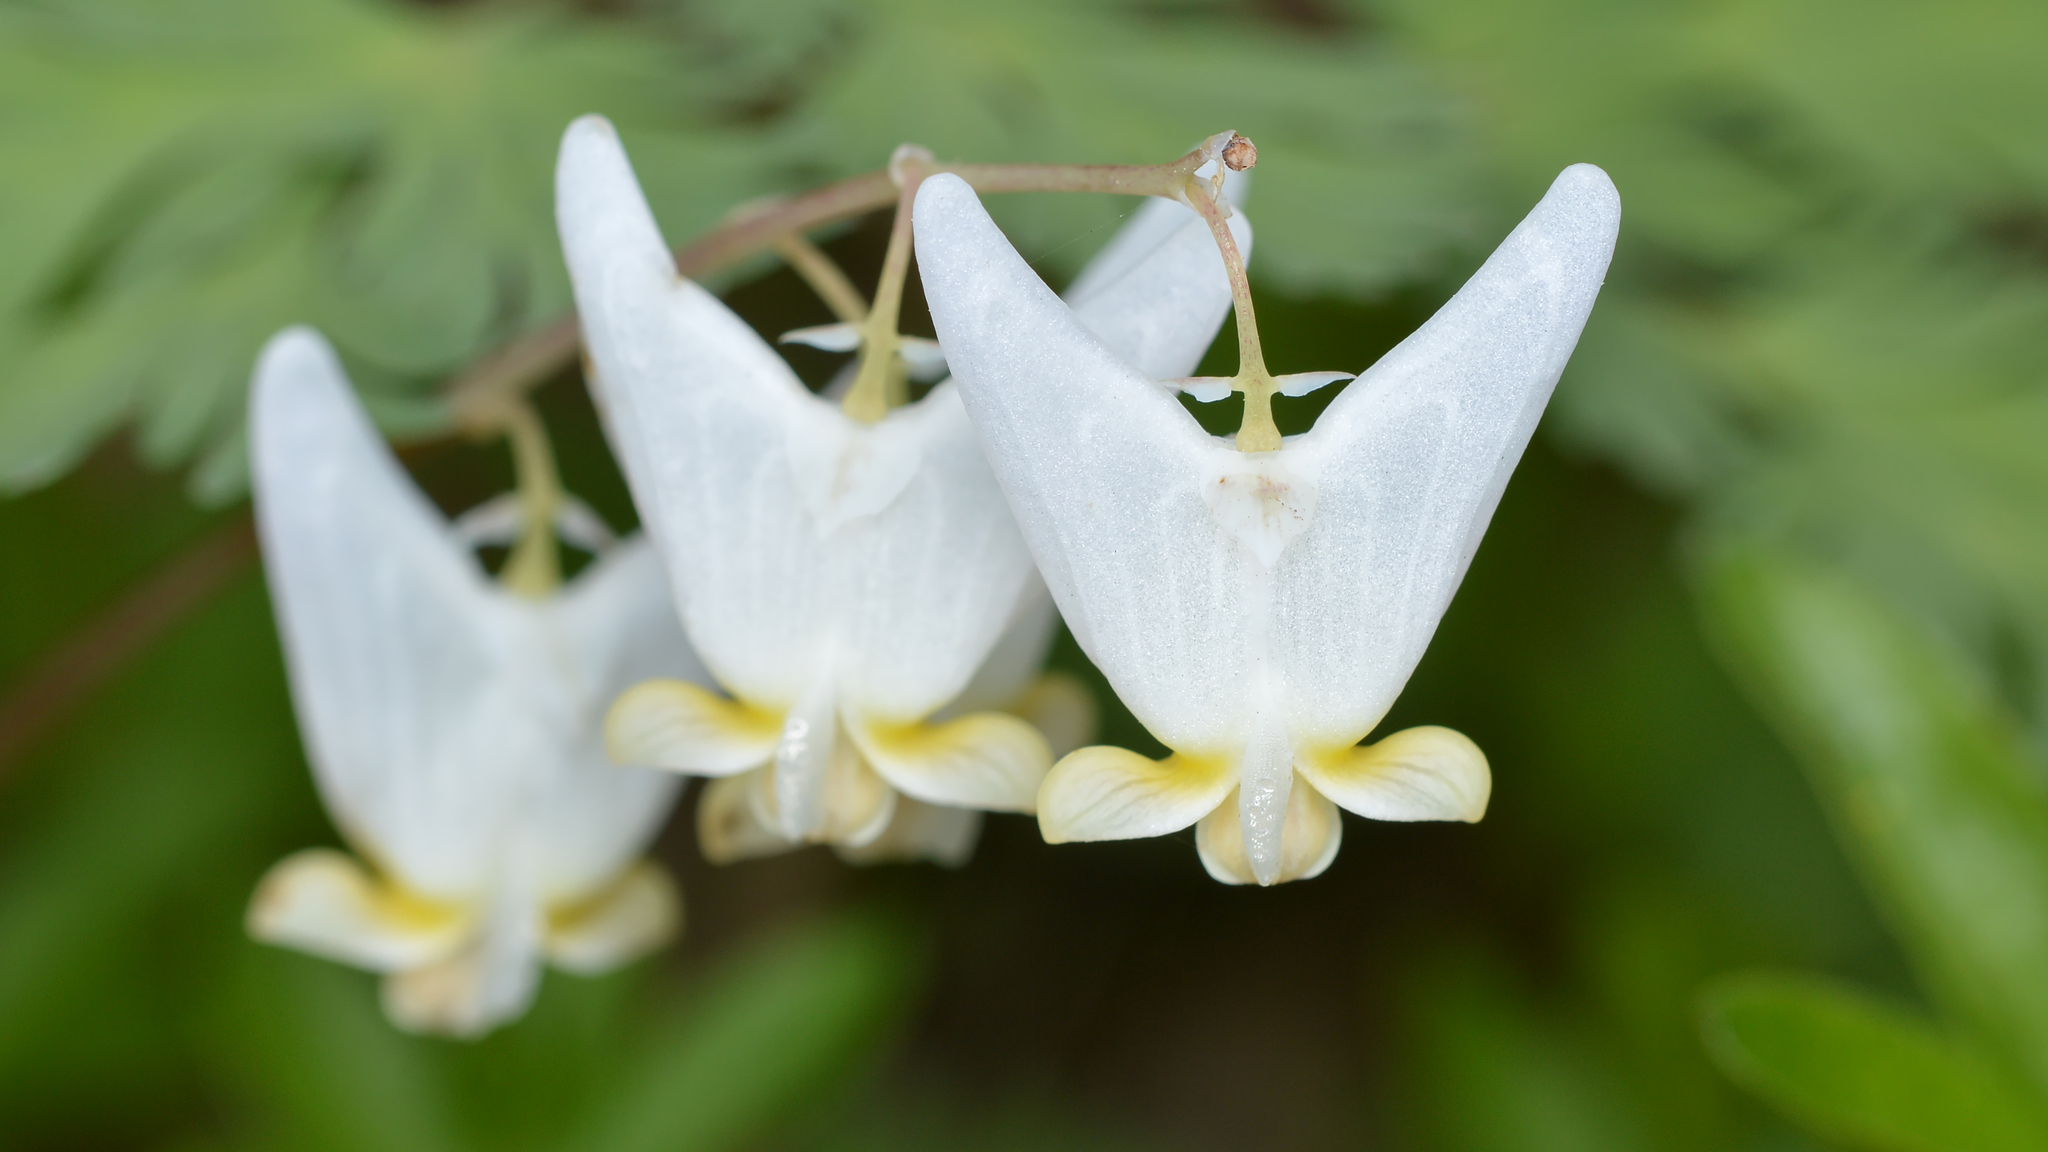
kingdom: Plantae
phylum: Tracheophyta
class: Magnoliopsida
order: Ranunculales
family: Papaveraceae
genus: Dicentra
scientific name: Dicentra cucullaria
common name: Dutchman's breeches
